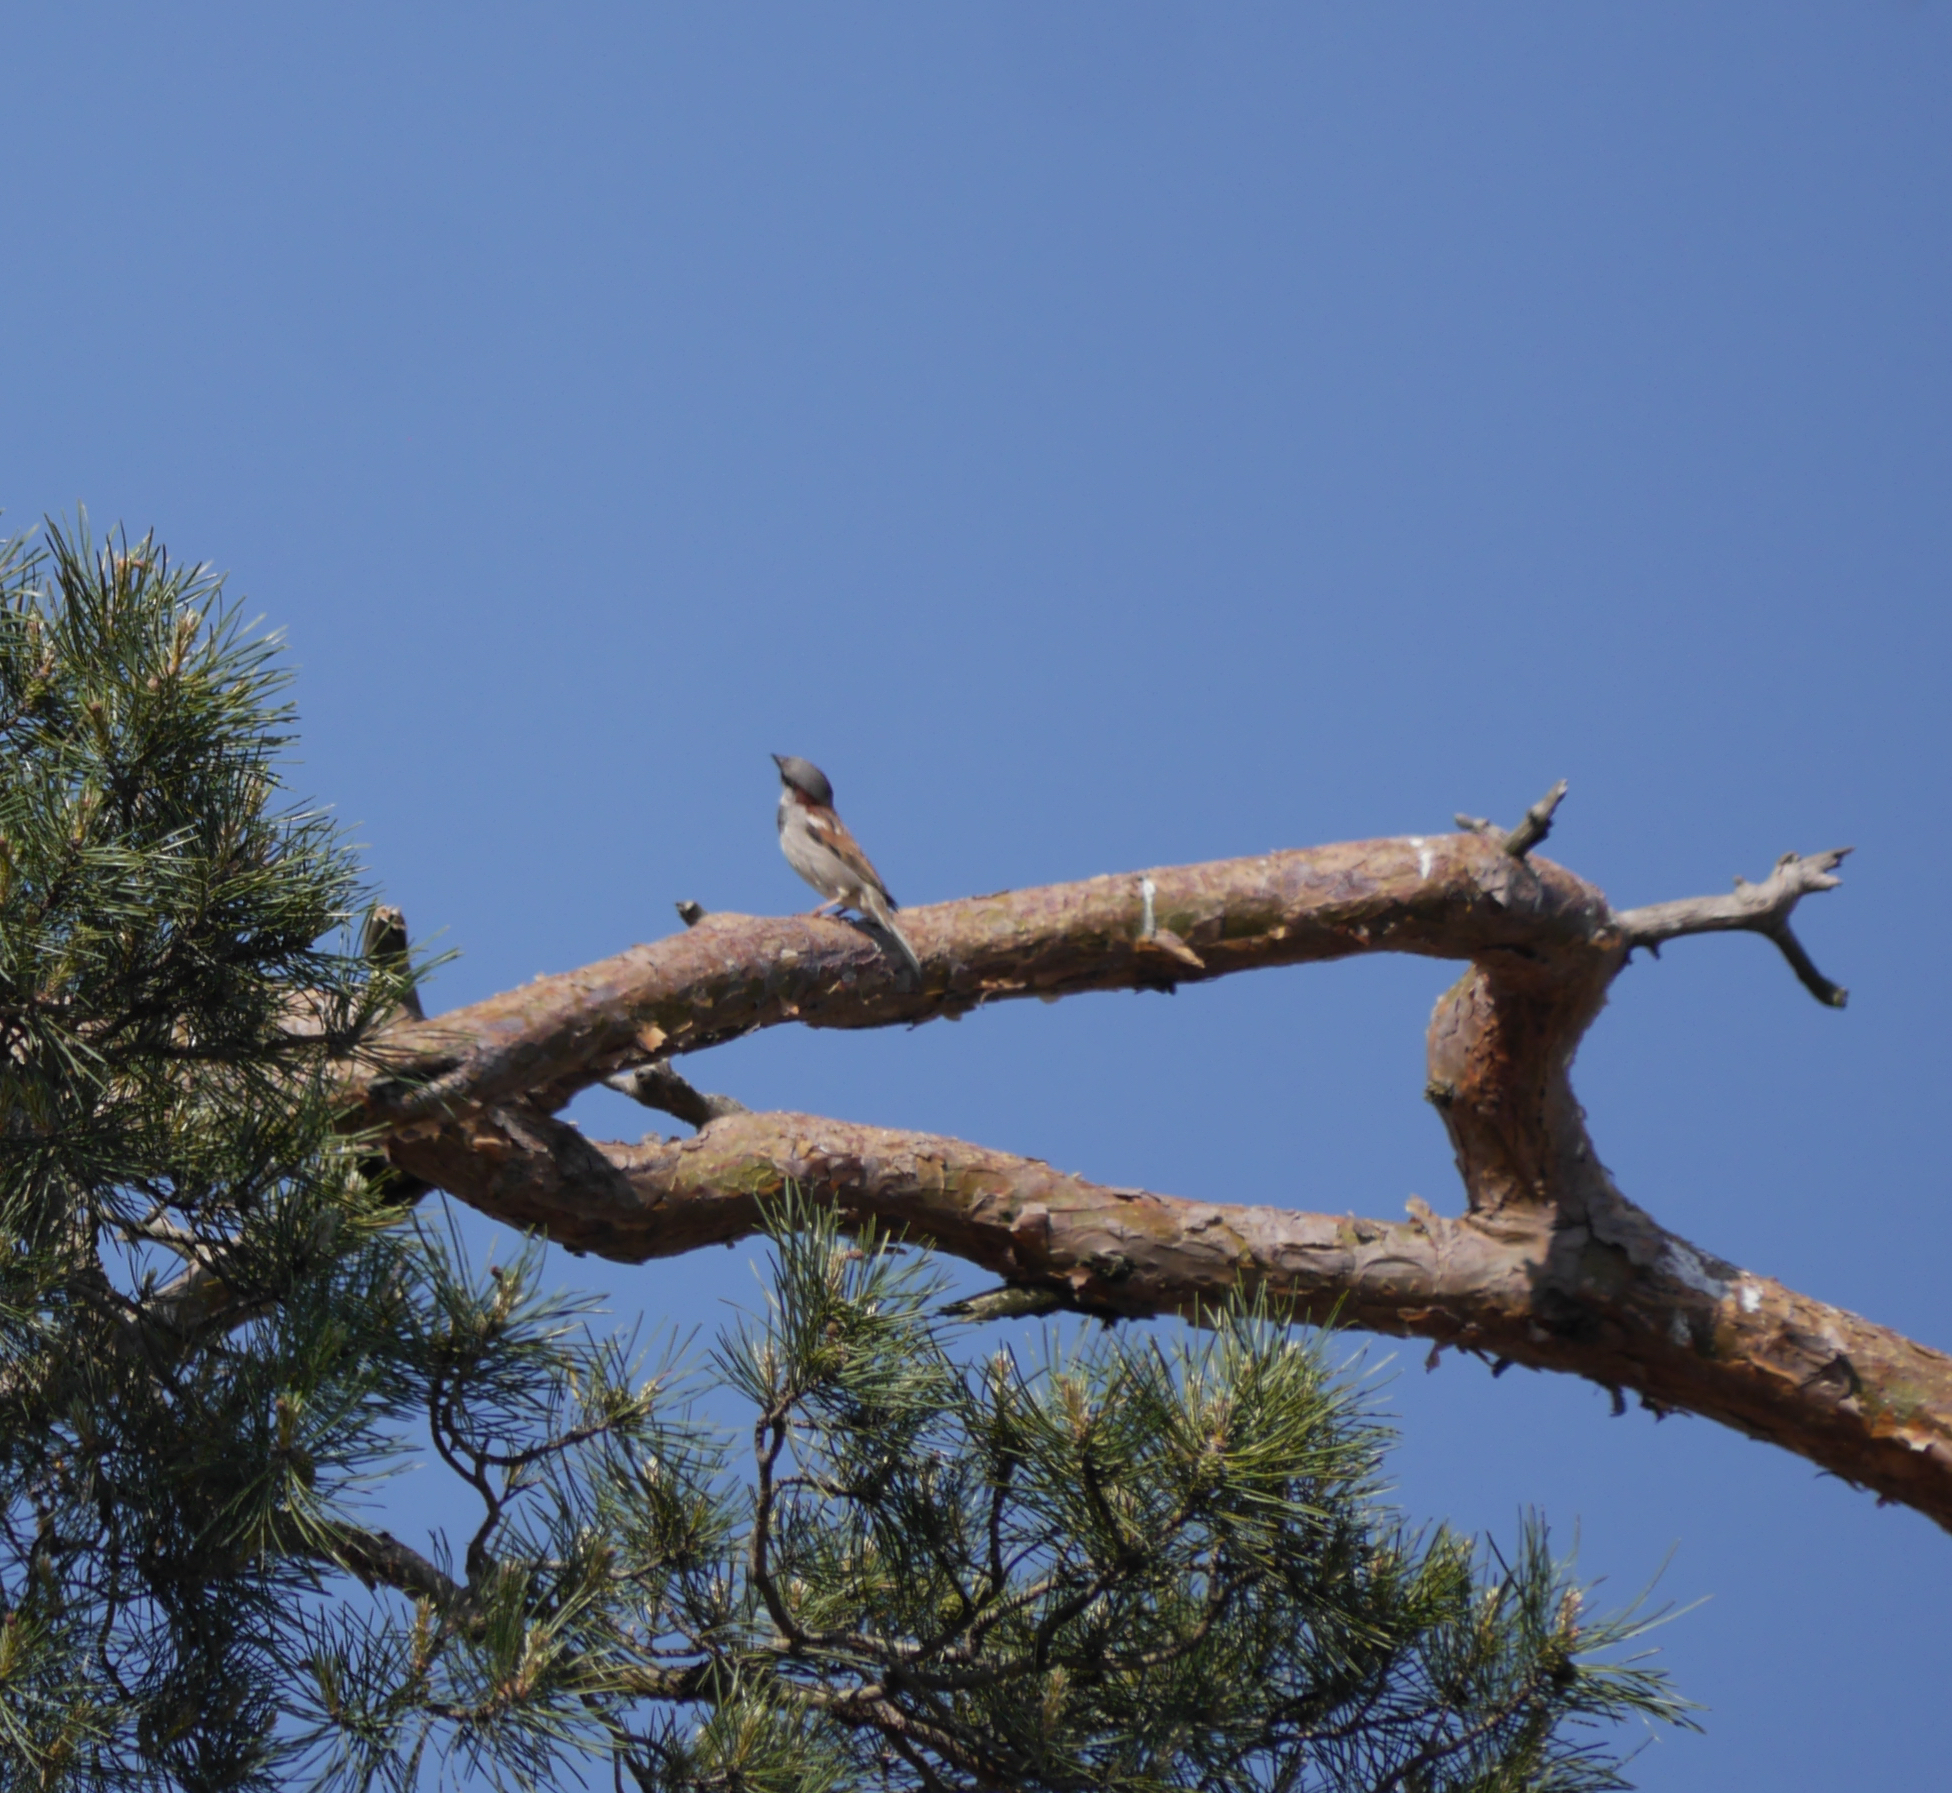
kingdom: Animalia
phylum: Chordata
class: Aves
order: Passeriformes
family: Passeridae
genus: Passer
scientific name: Passer domesticus
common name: House sparrow
